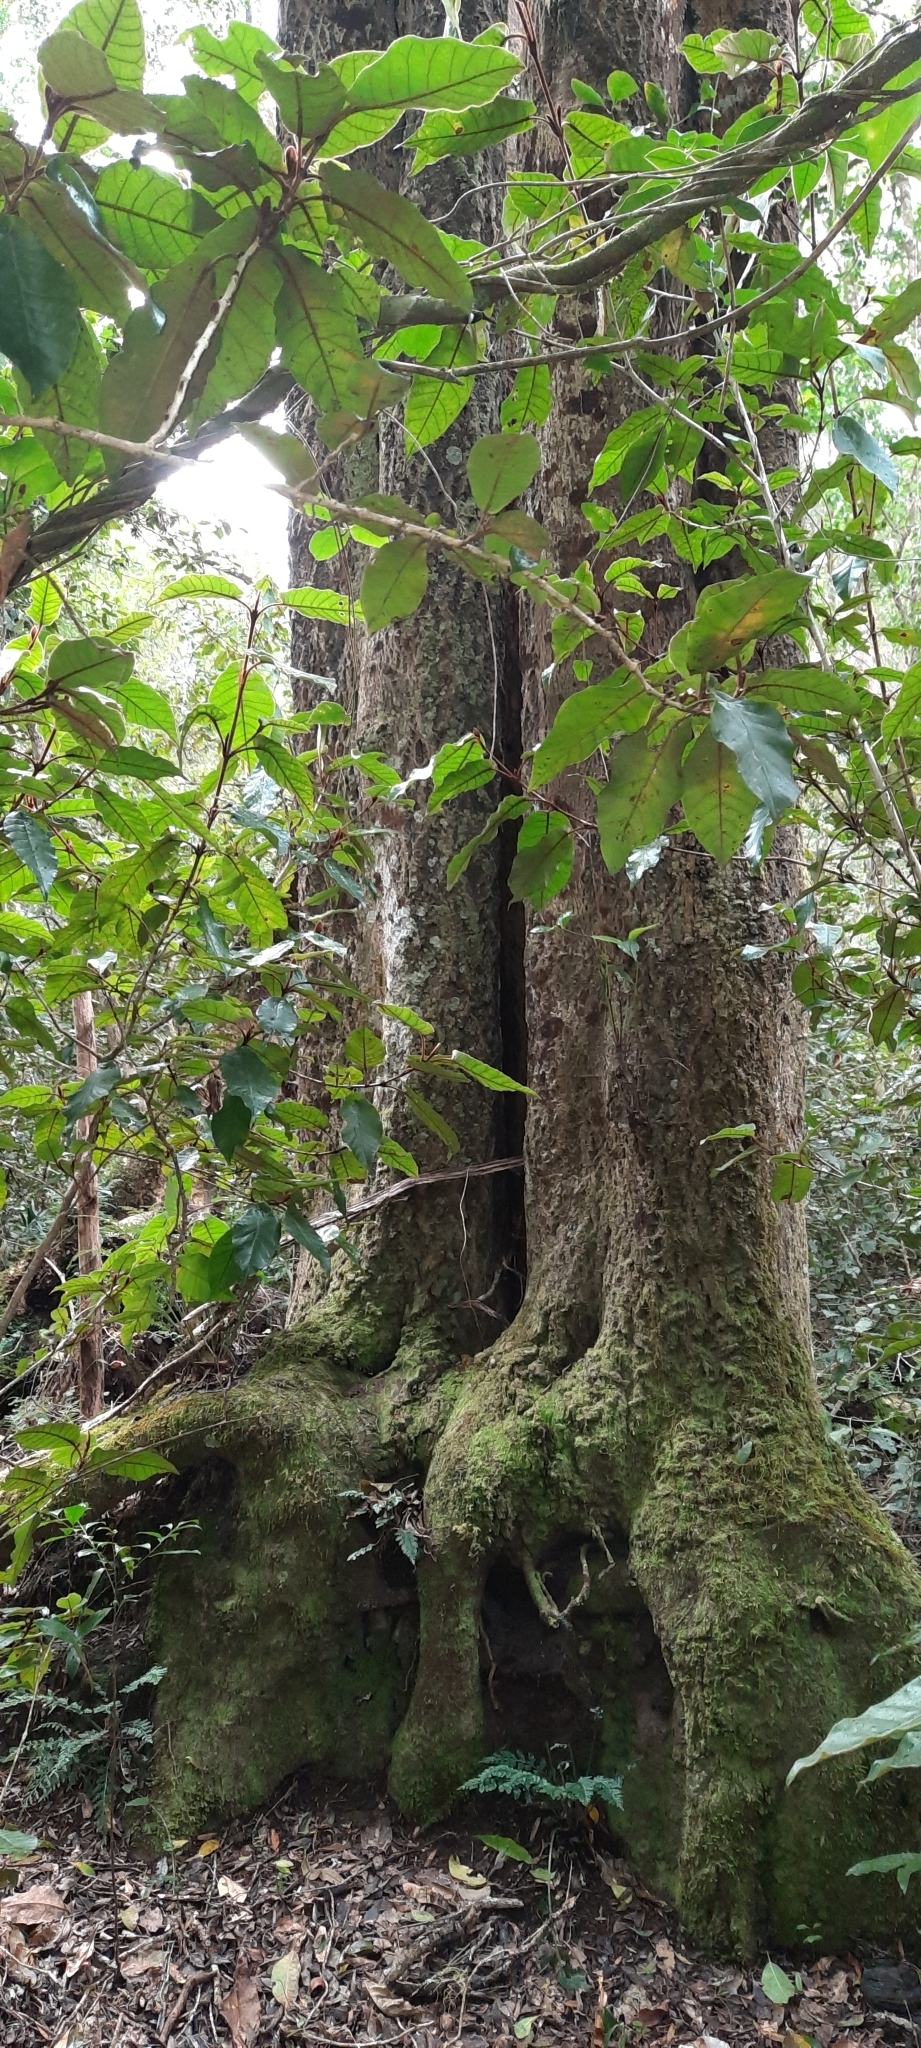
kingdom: Plantae
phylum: Tracheophyta
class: Magnoliopsida
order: Celastrales
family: Celastraceae
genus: Pterocelastrus
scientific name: Pterocelastrus tricuspidatus
